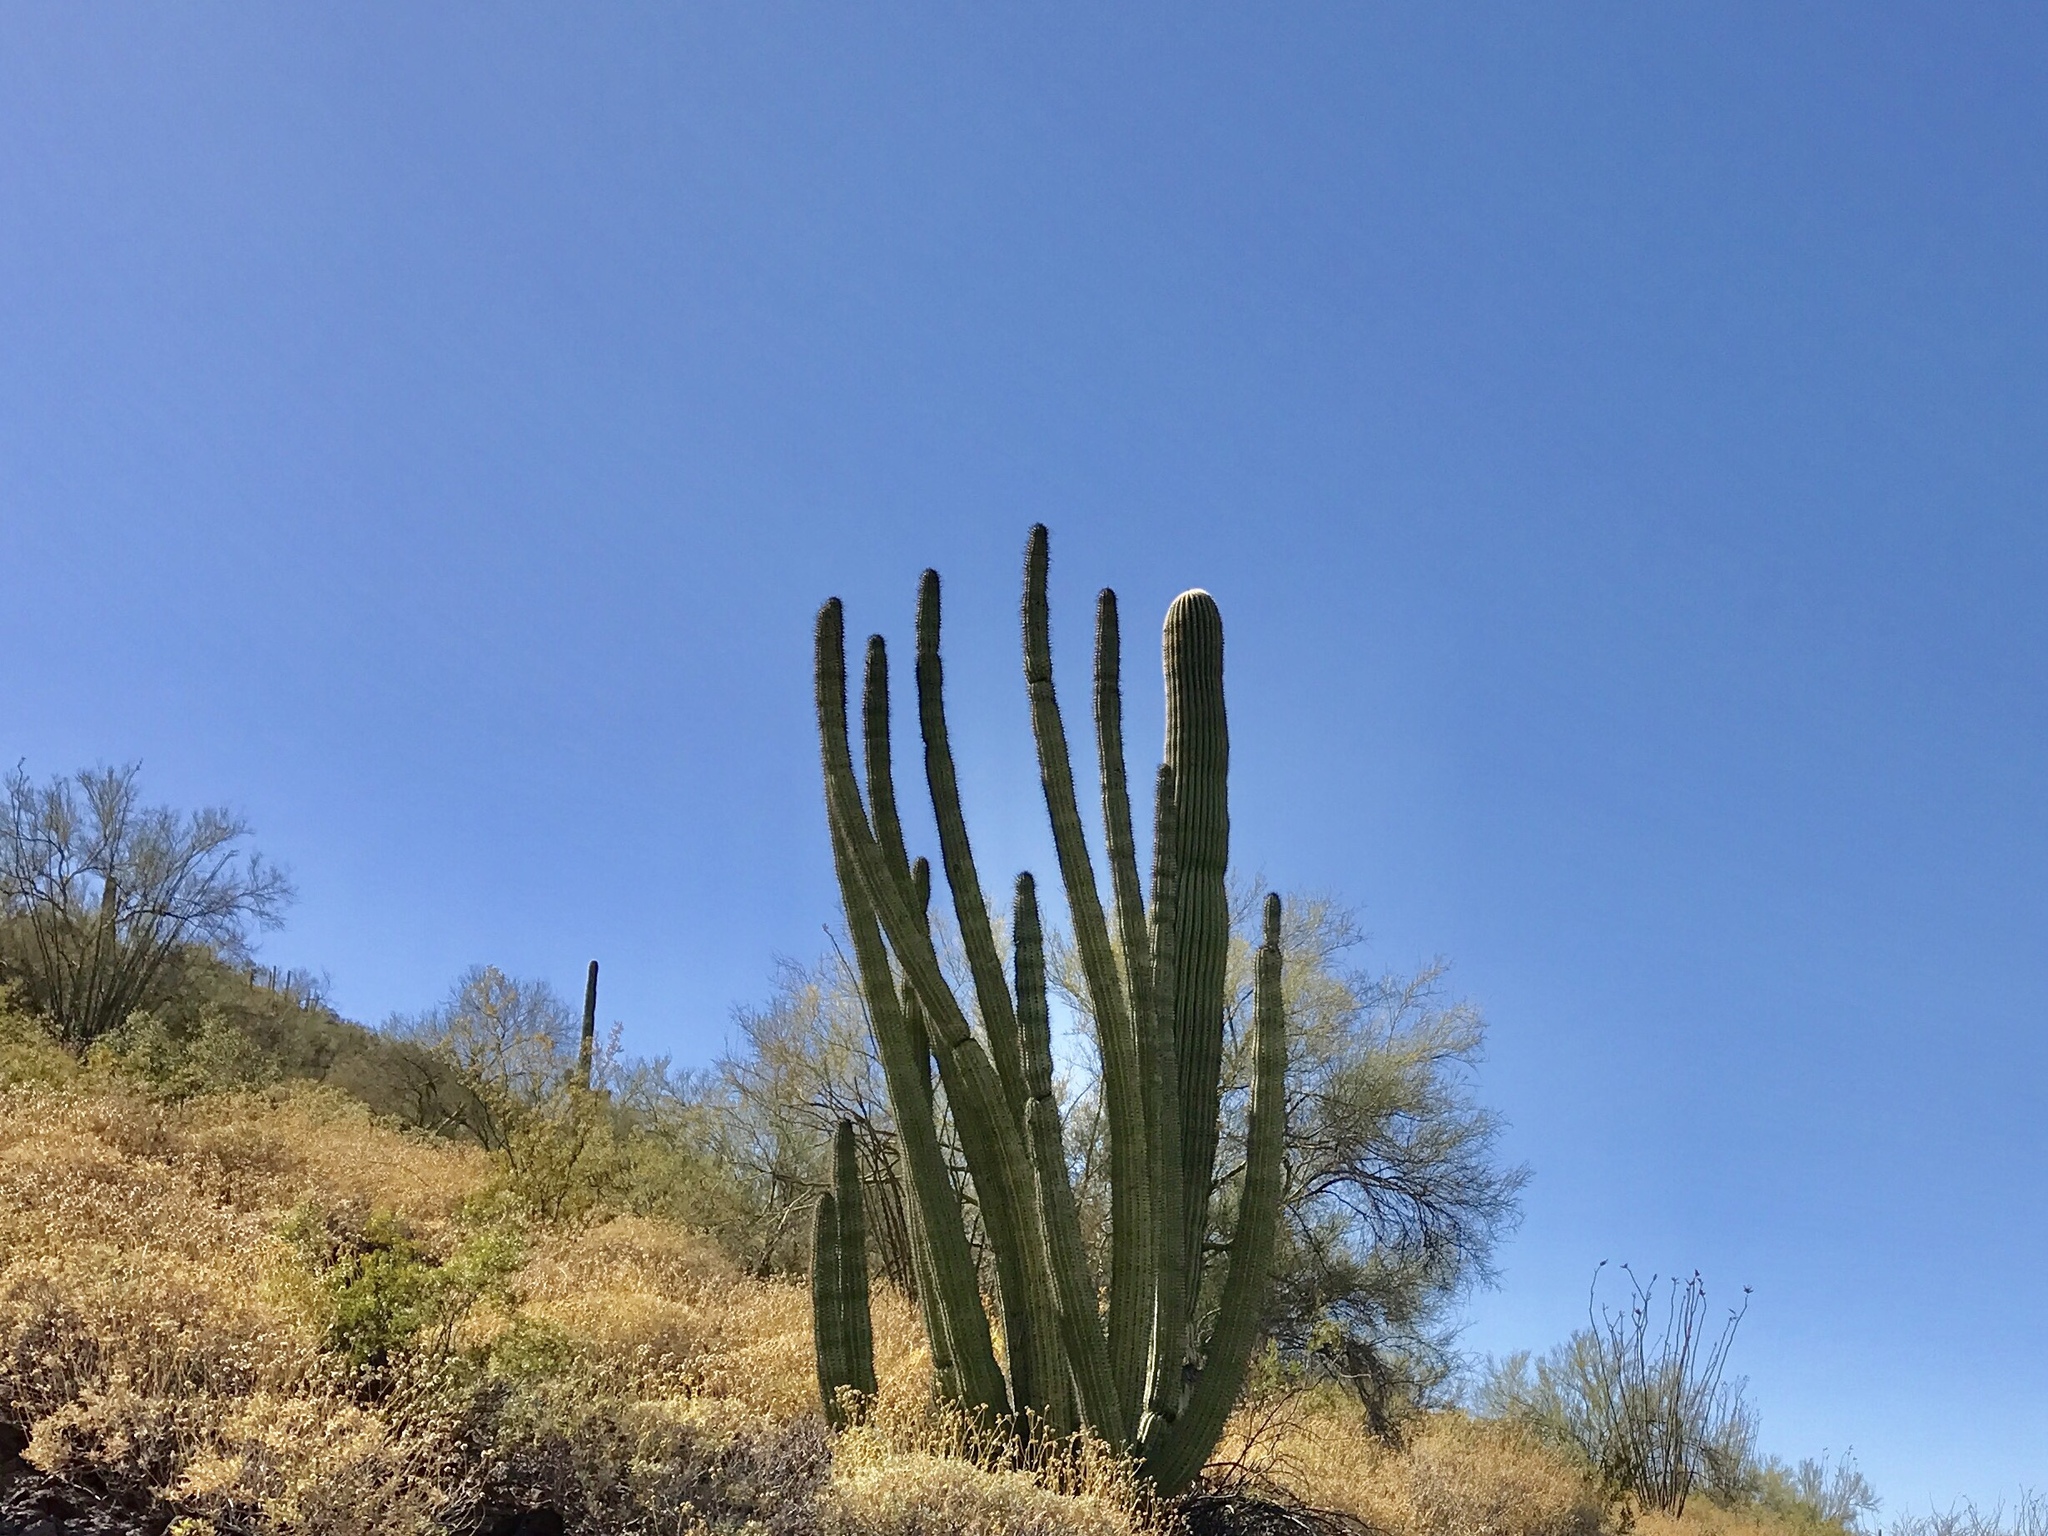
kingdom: Plantae
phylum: Tracheophyta
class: Magnoliopsida
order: Caryophyllales
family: Cactaceae
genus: Stenocereus
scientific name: Stenocereus thurberi
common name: Organ pipe cactus
